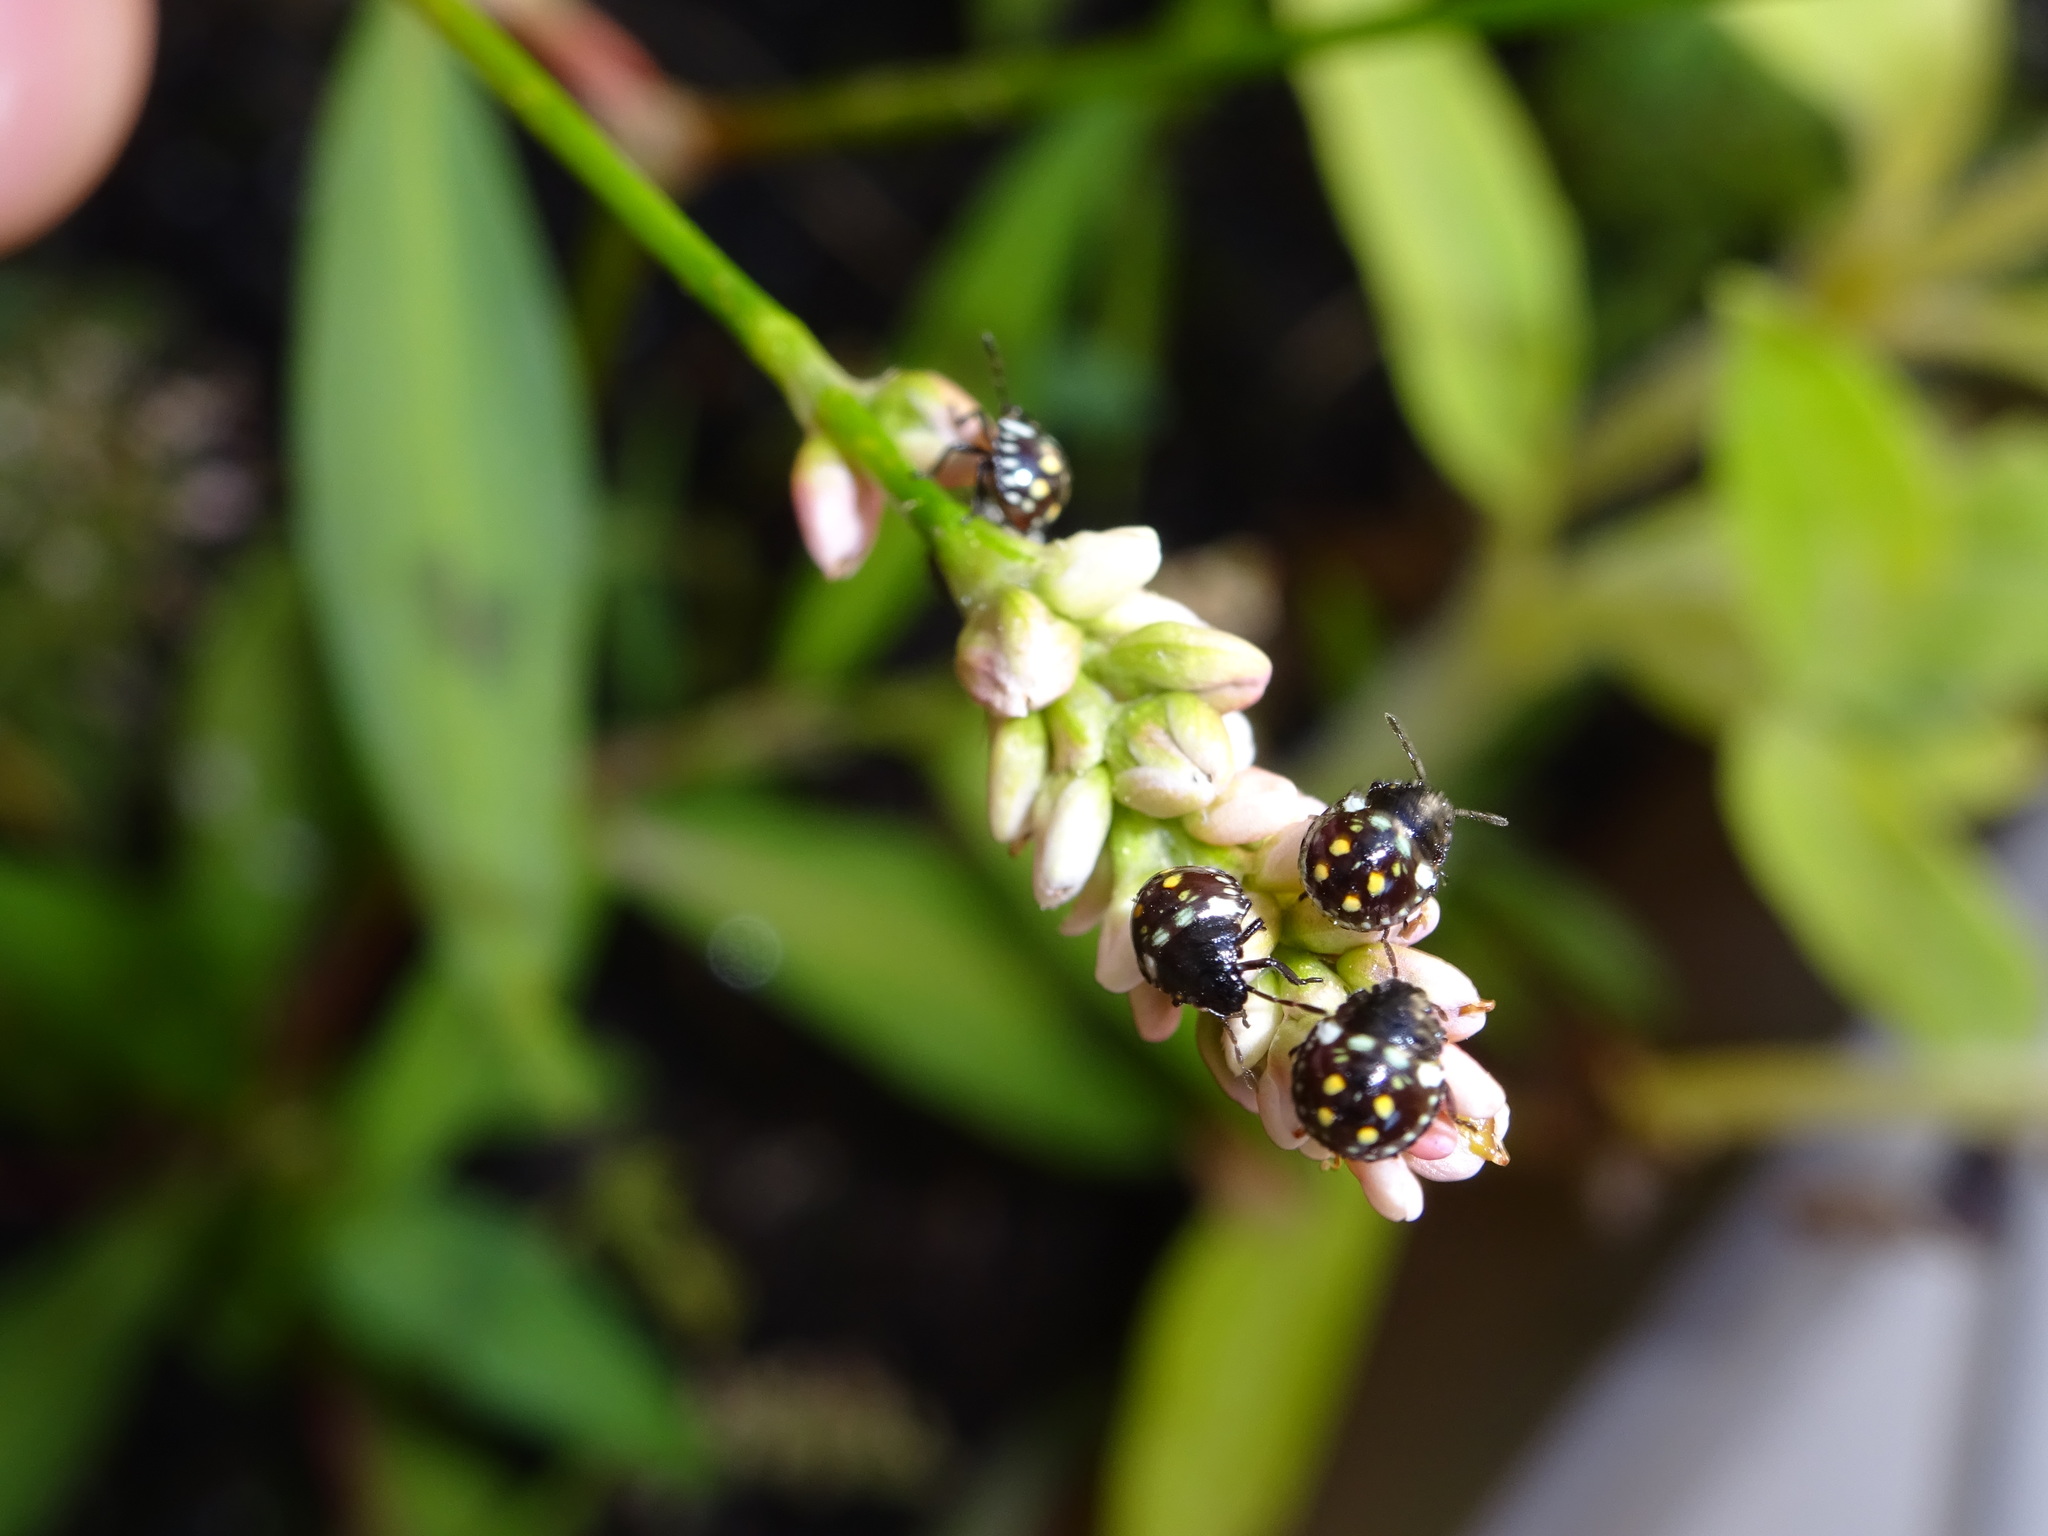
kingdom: Animalia
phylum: Arthropoda
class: Insecta
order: Hemiptera
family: Pentatomidae
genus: Nezara
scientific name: Nezara viridula
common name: Southern green stink bug
